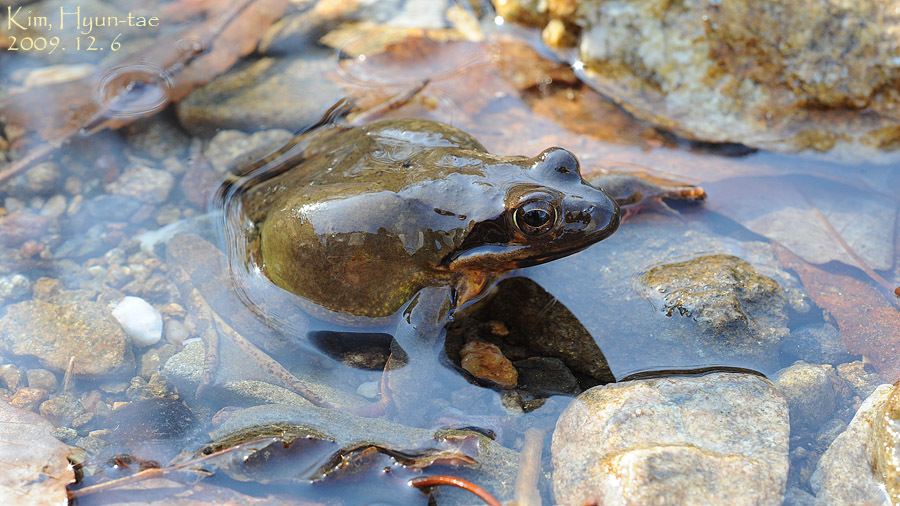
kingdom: Animalia
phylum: Chordata
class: Amphibia
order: Anura
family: Ranidae
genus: Rana
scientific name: Rana uenoi
